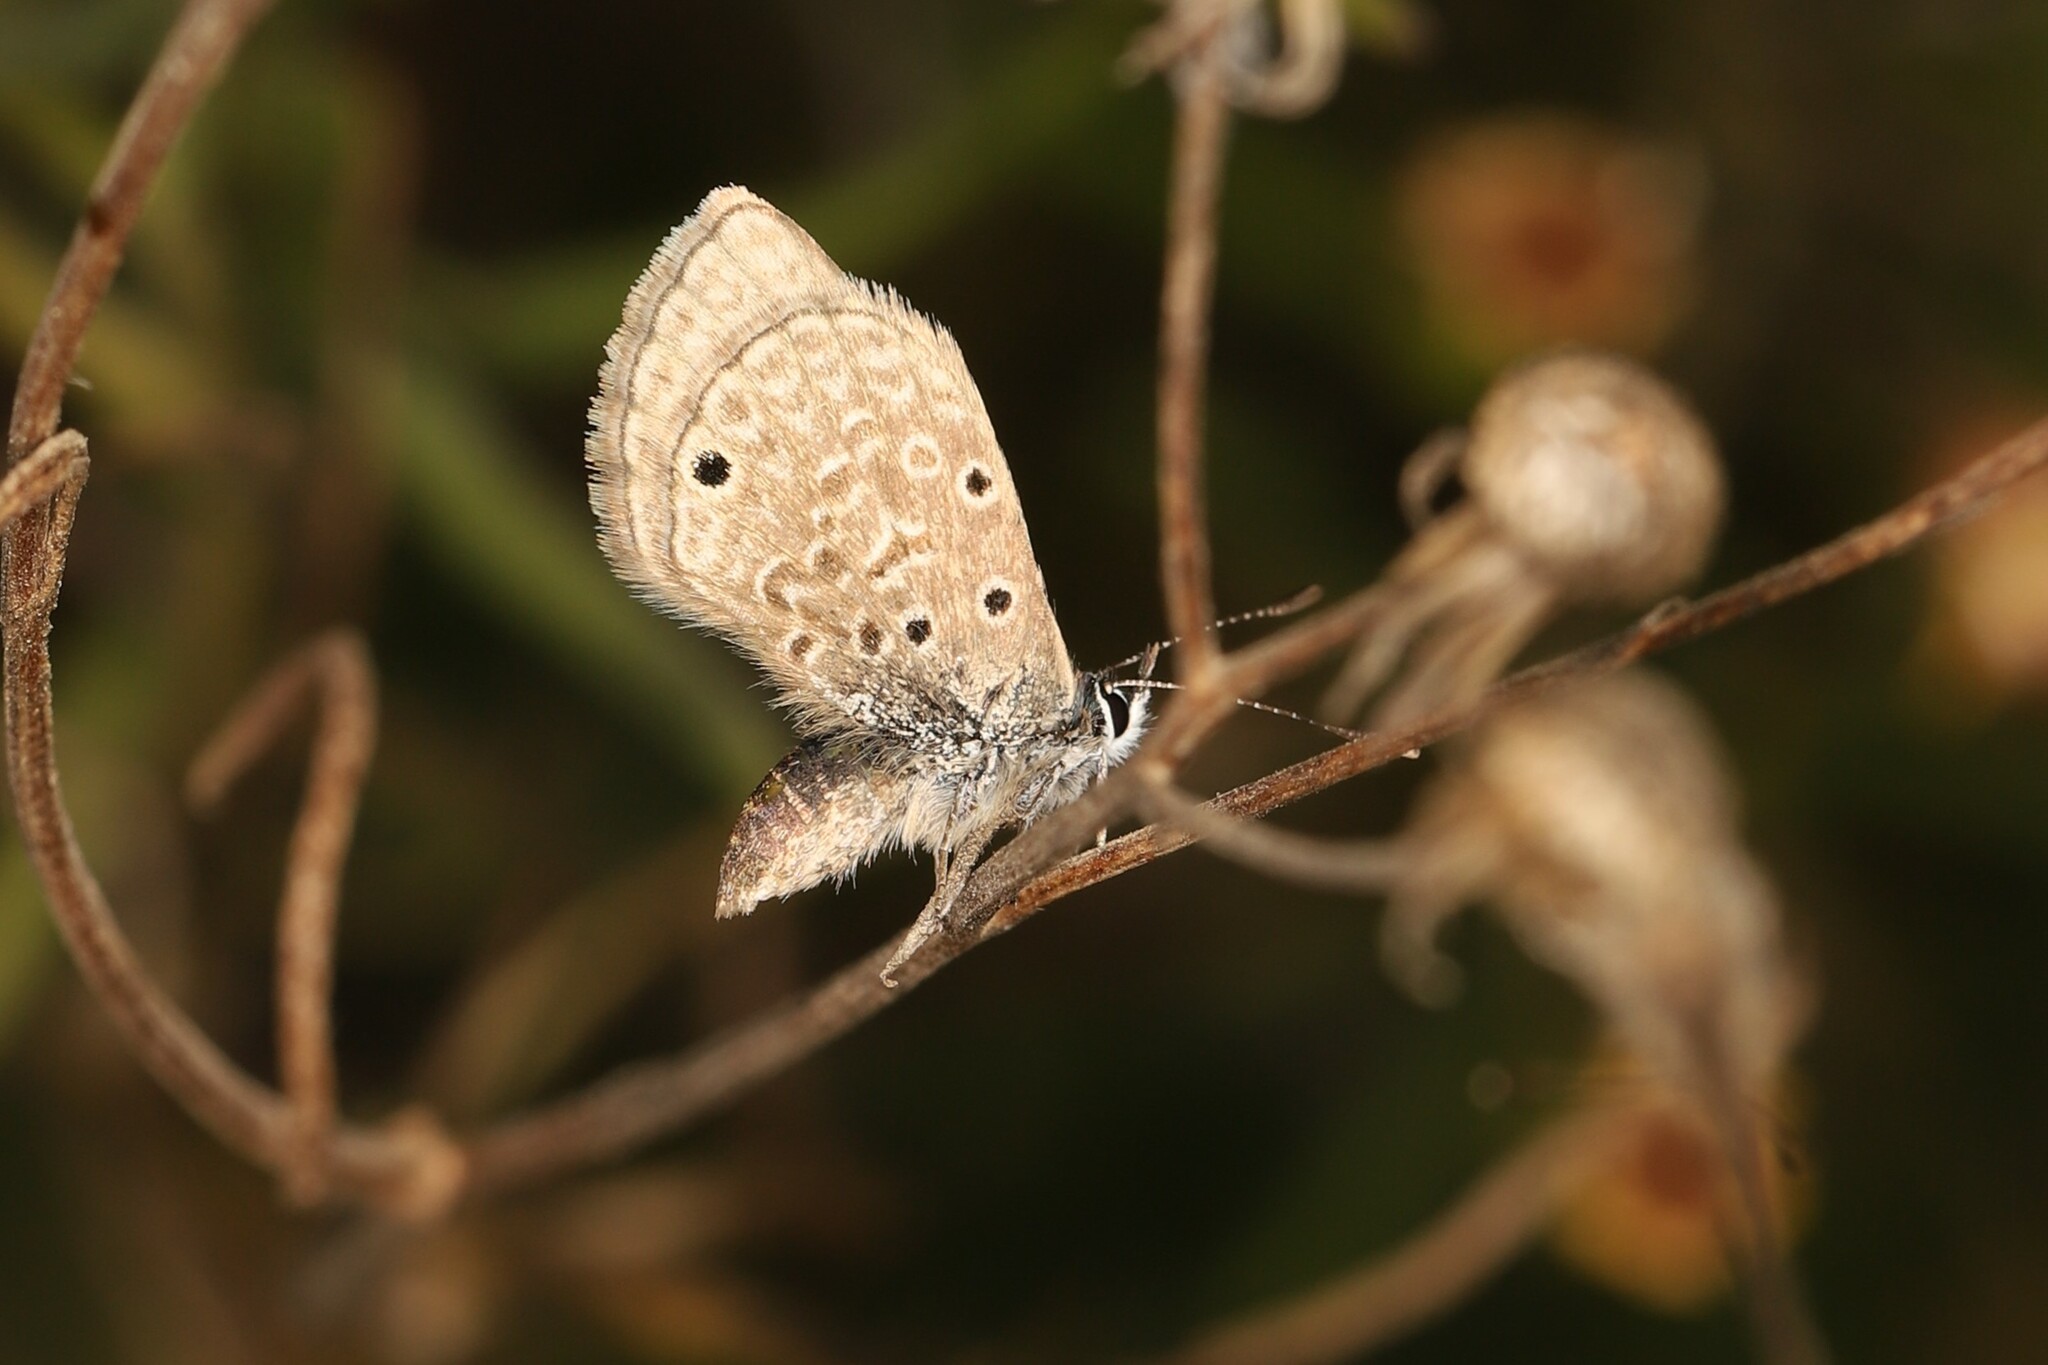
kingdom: Animalia
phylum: Arthropoda
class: Insecta
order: Lepidoptera
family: Lycaenidae
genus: Hemiargus
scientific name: Hemiargus hanno
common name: Common blue
